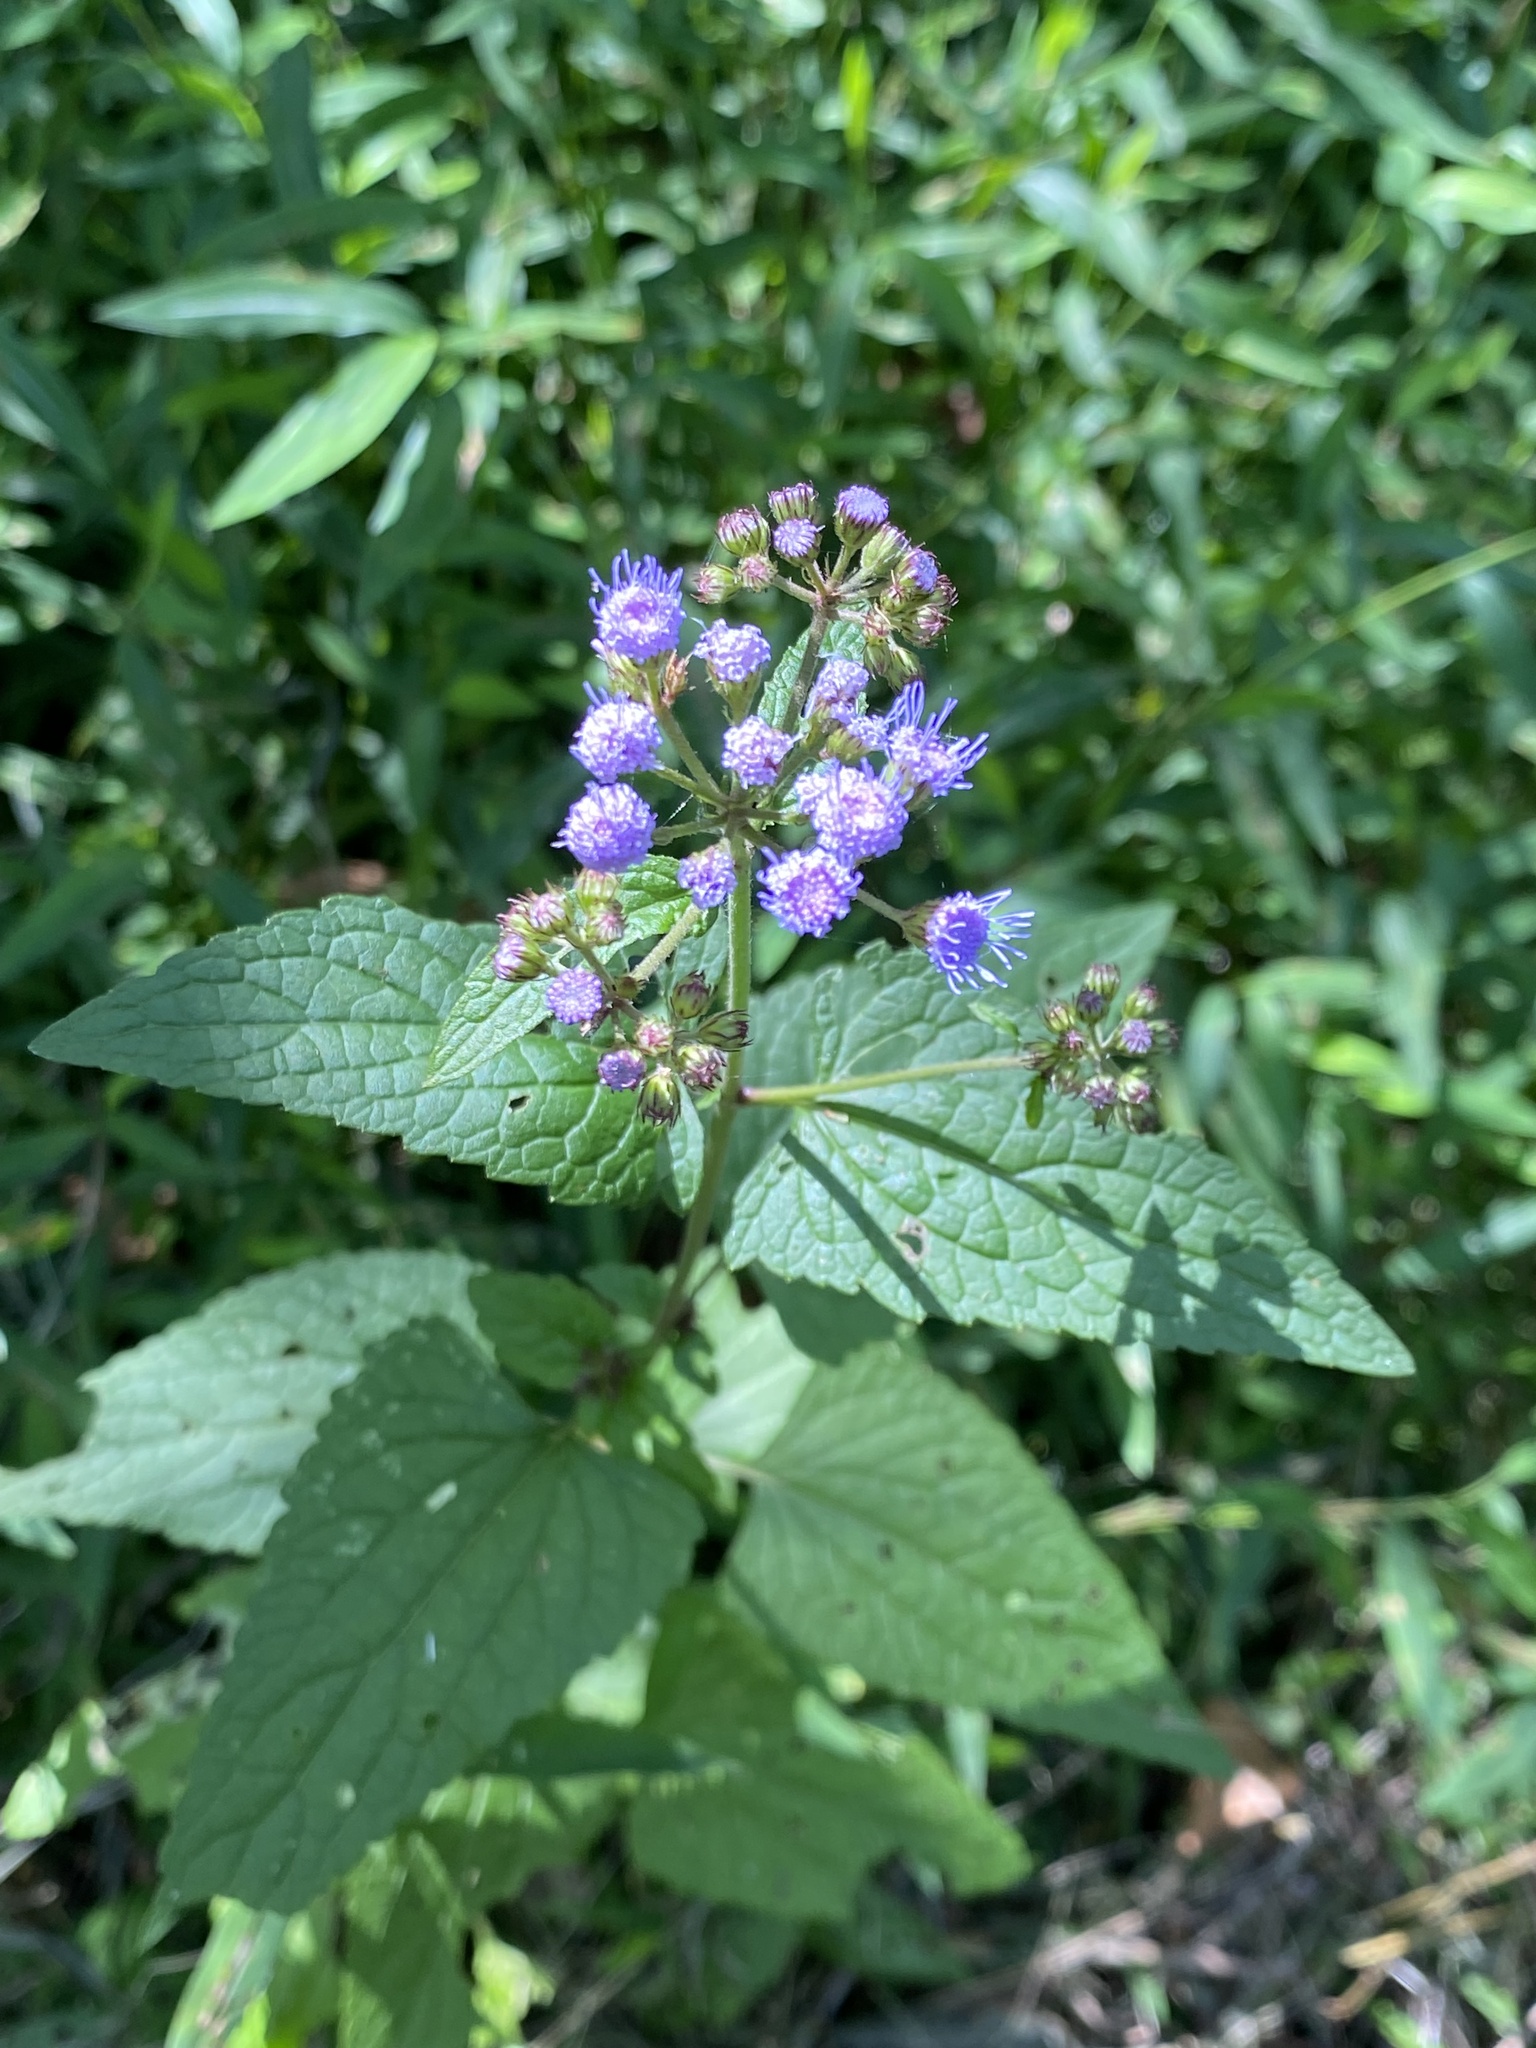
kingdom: Plantae
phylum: Tracheophyta
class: Magnoliopsida
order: Asterales
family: Asteraceae
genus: Conoclinium
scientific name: Conoclinium coelestinum
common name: Blue mistflower
